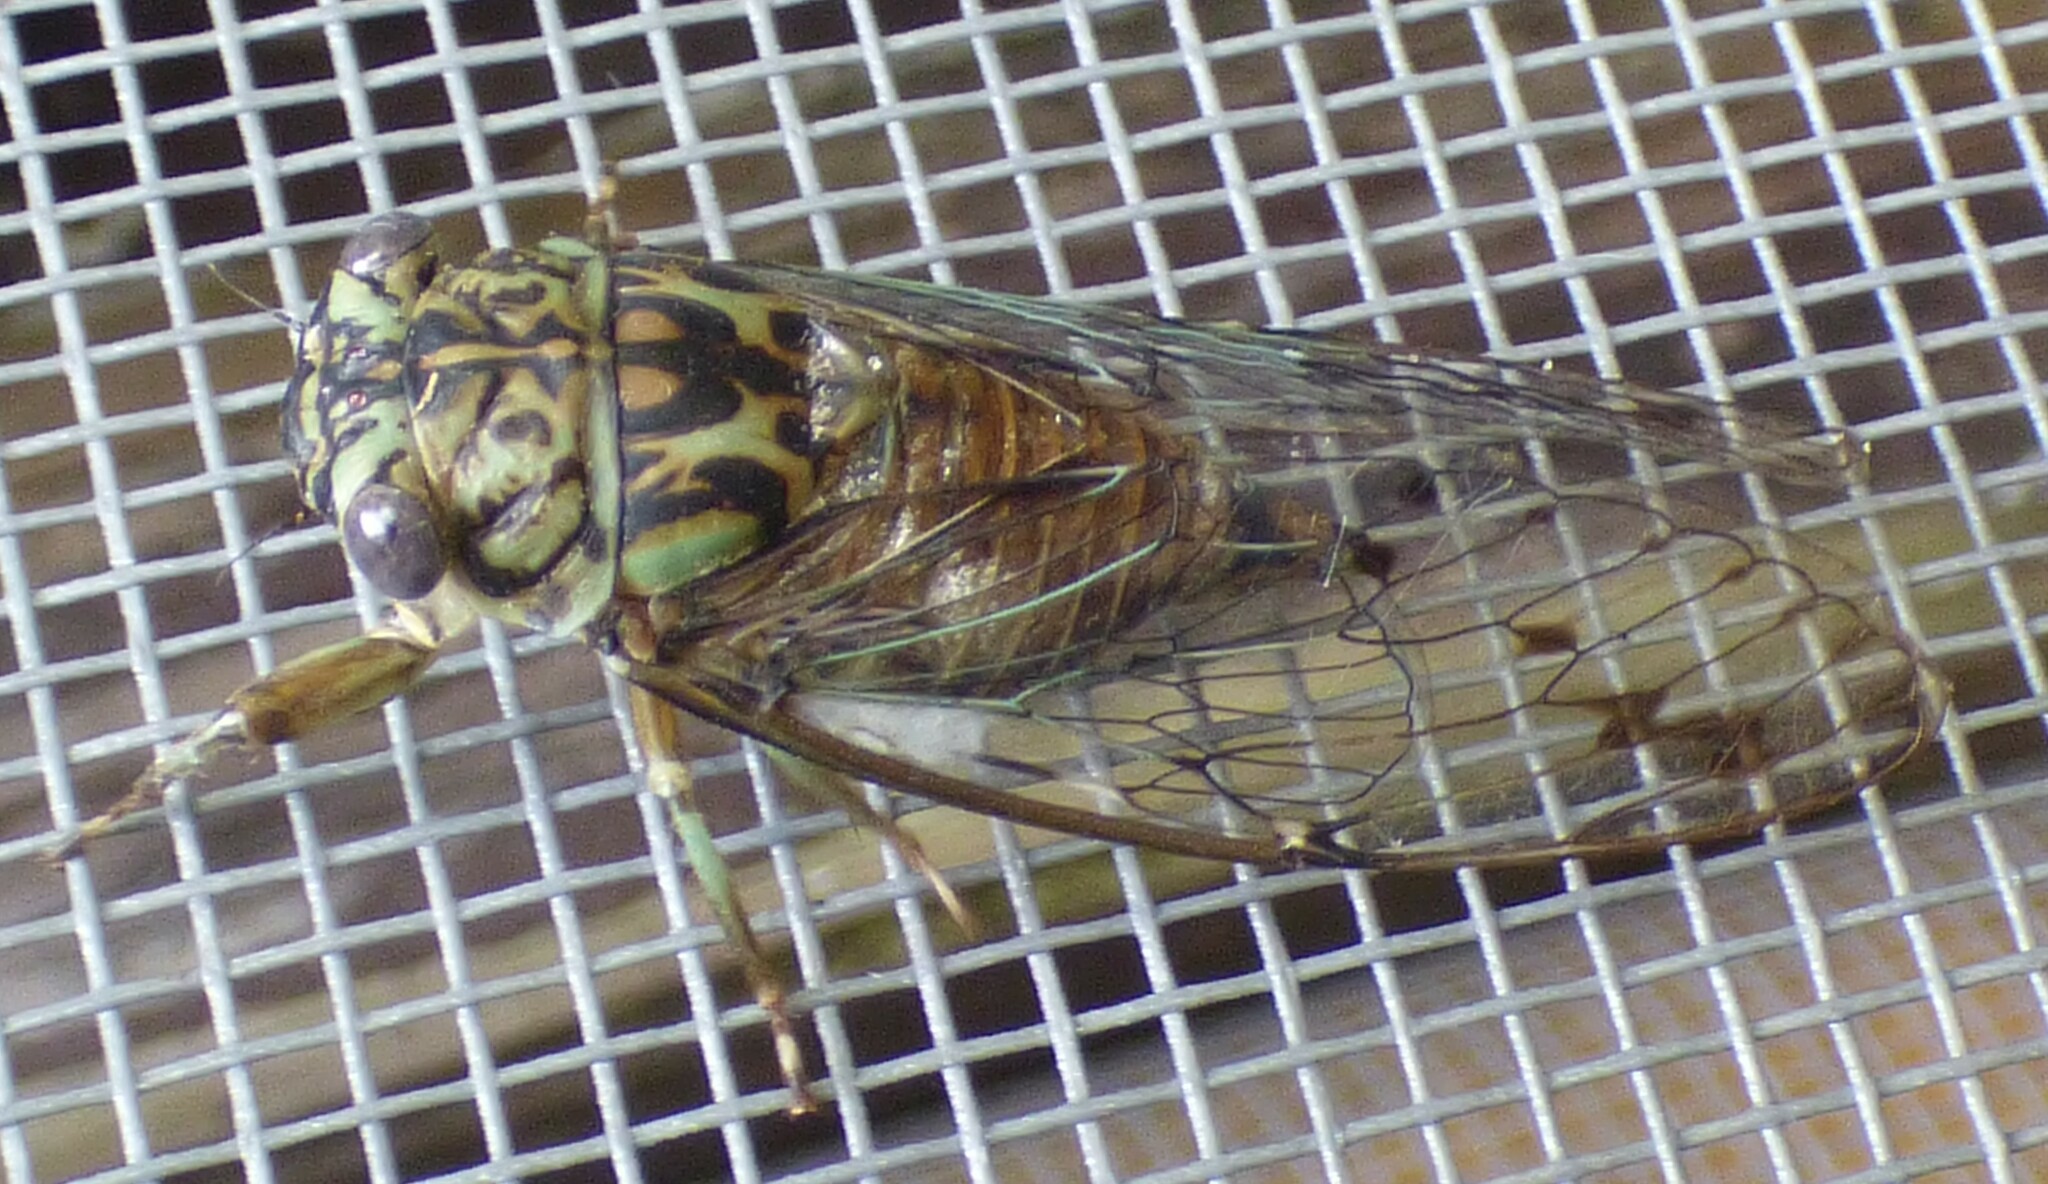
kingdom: Animalia
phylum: Arthropoda
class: Insecta
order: Hemiptera
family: Cicadidae
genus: Neocicada
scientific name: Neocicada hieroglyphica
